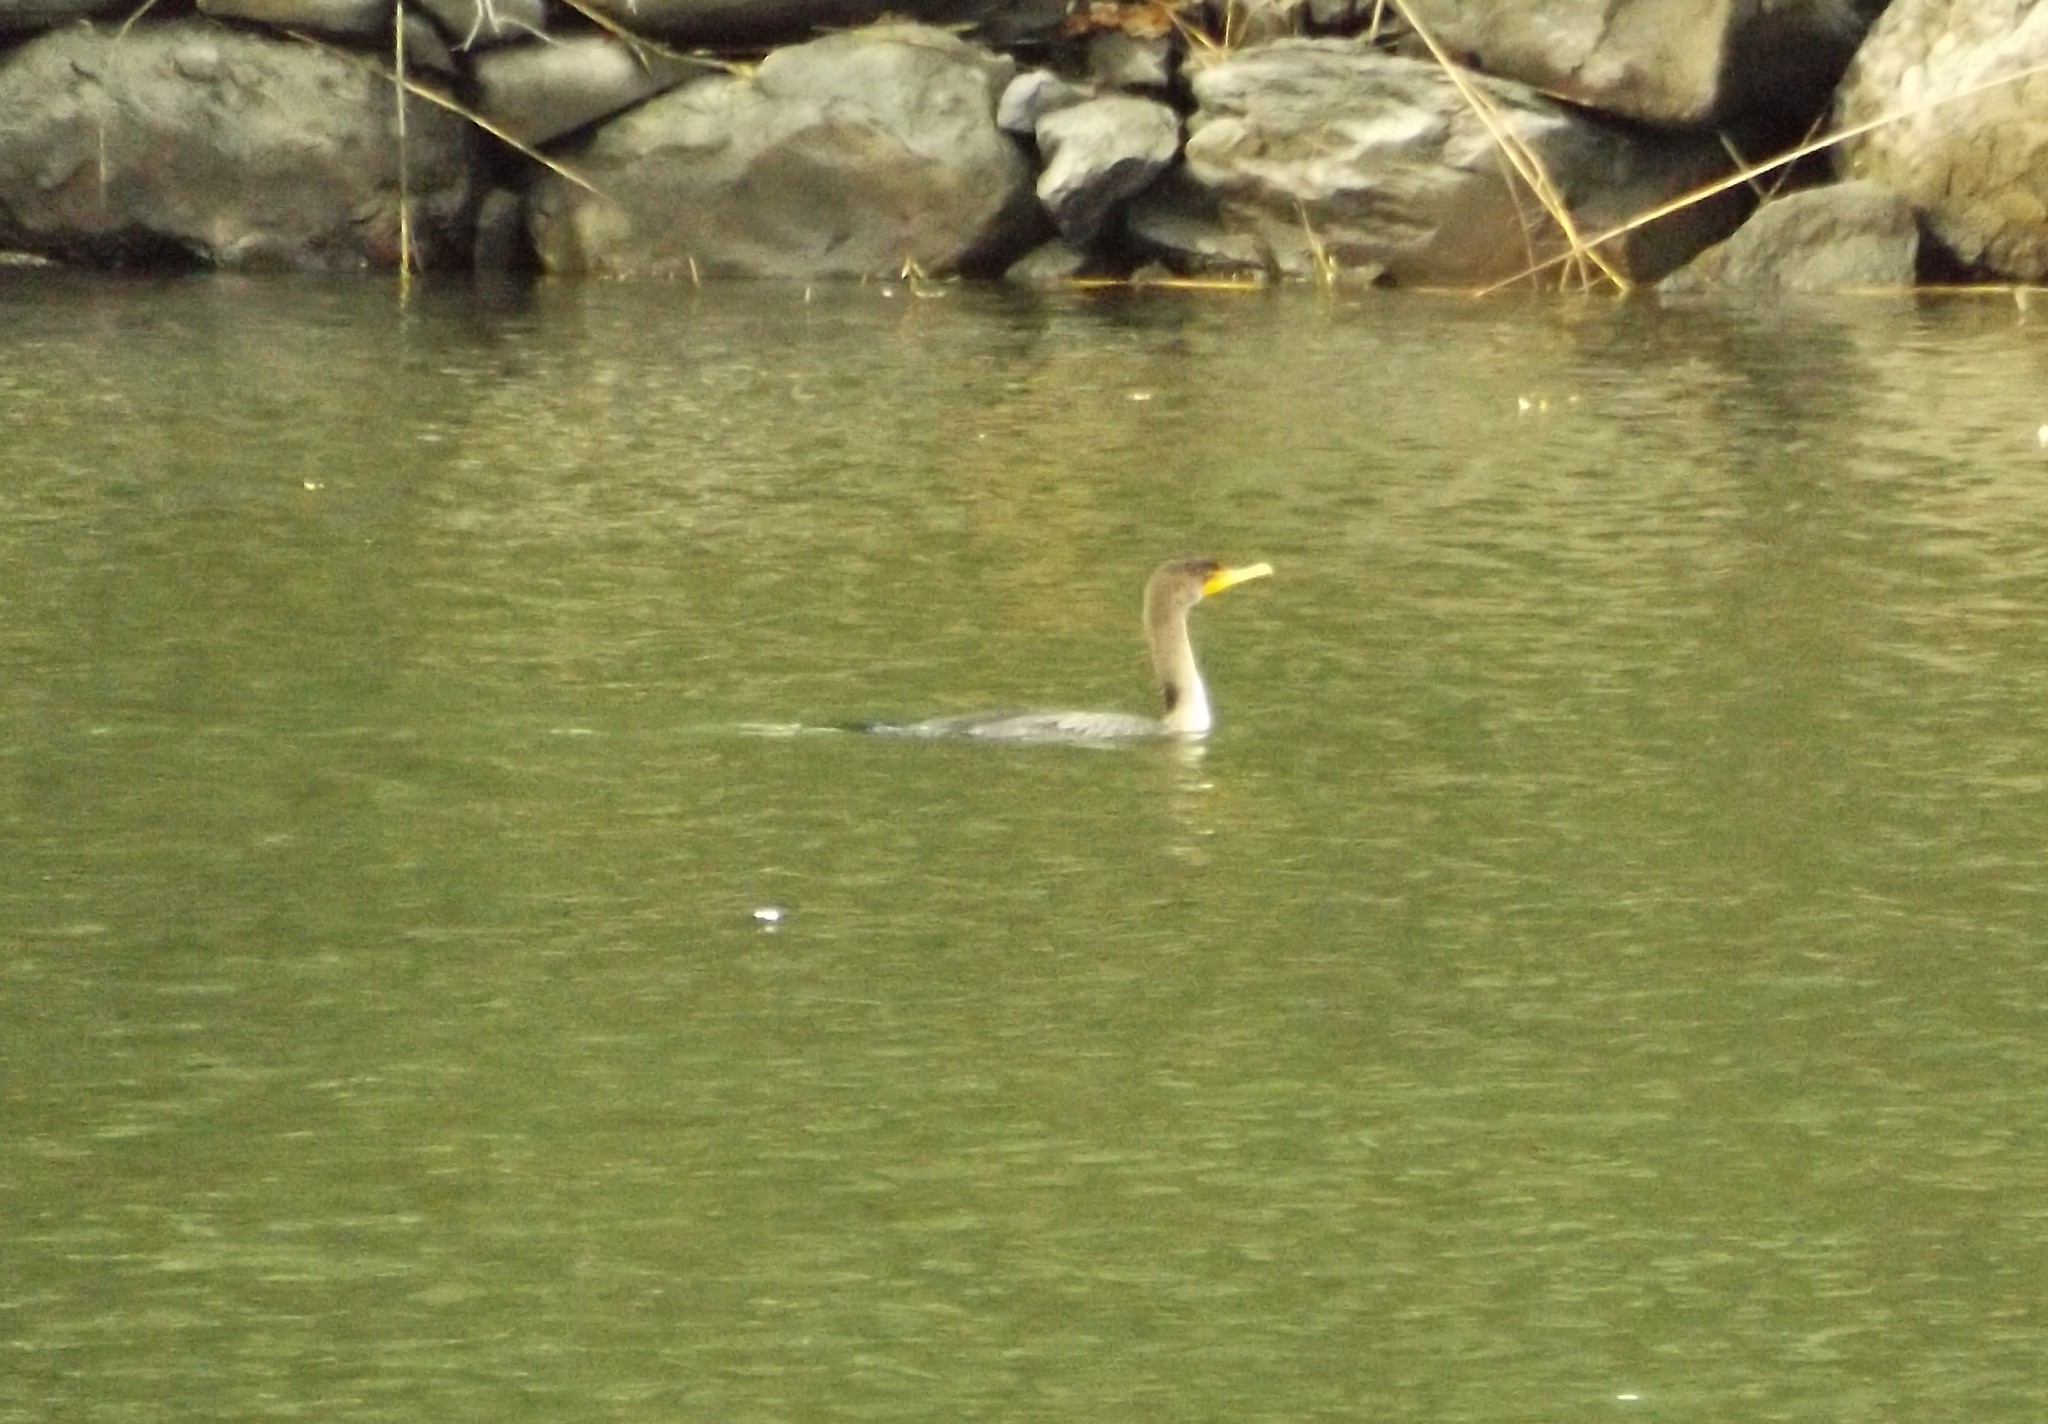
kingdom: Animalia
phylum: Chordata
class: Aves
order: Suliformes
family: Phalacrocoracidae
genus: Phalacrocorax
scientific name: Phalacrocorax auritus
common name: Double-crested cormorant
